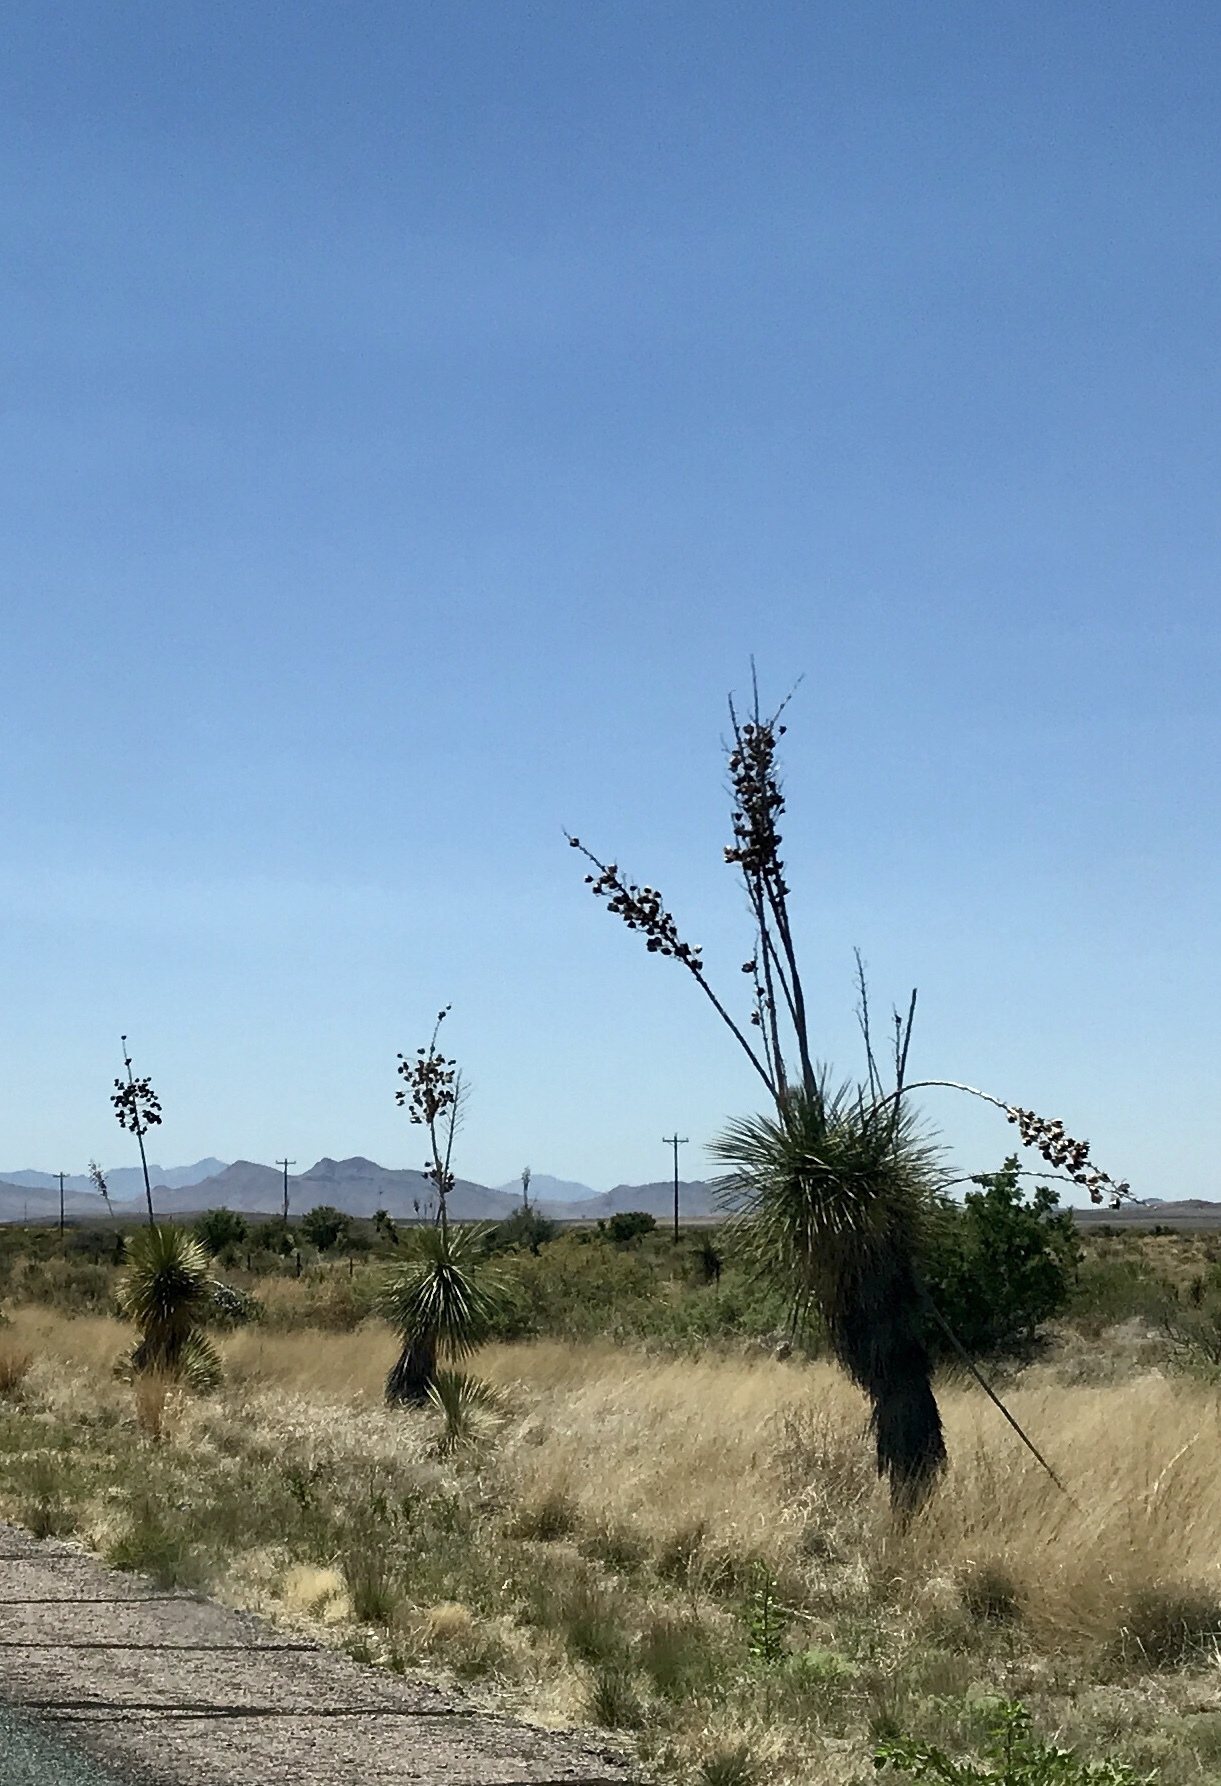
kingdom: Plantae
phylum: Tracheophyta
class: Liliopsida
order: Asparagales
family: Asparagaceae
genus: Yucca
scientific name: Yucca elata
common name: Palmella
